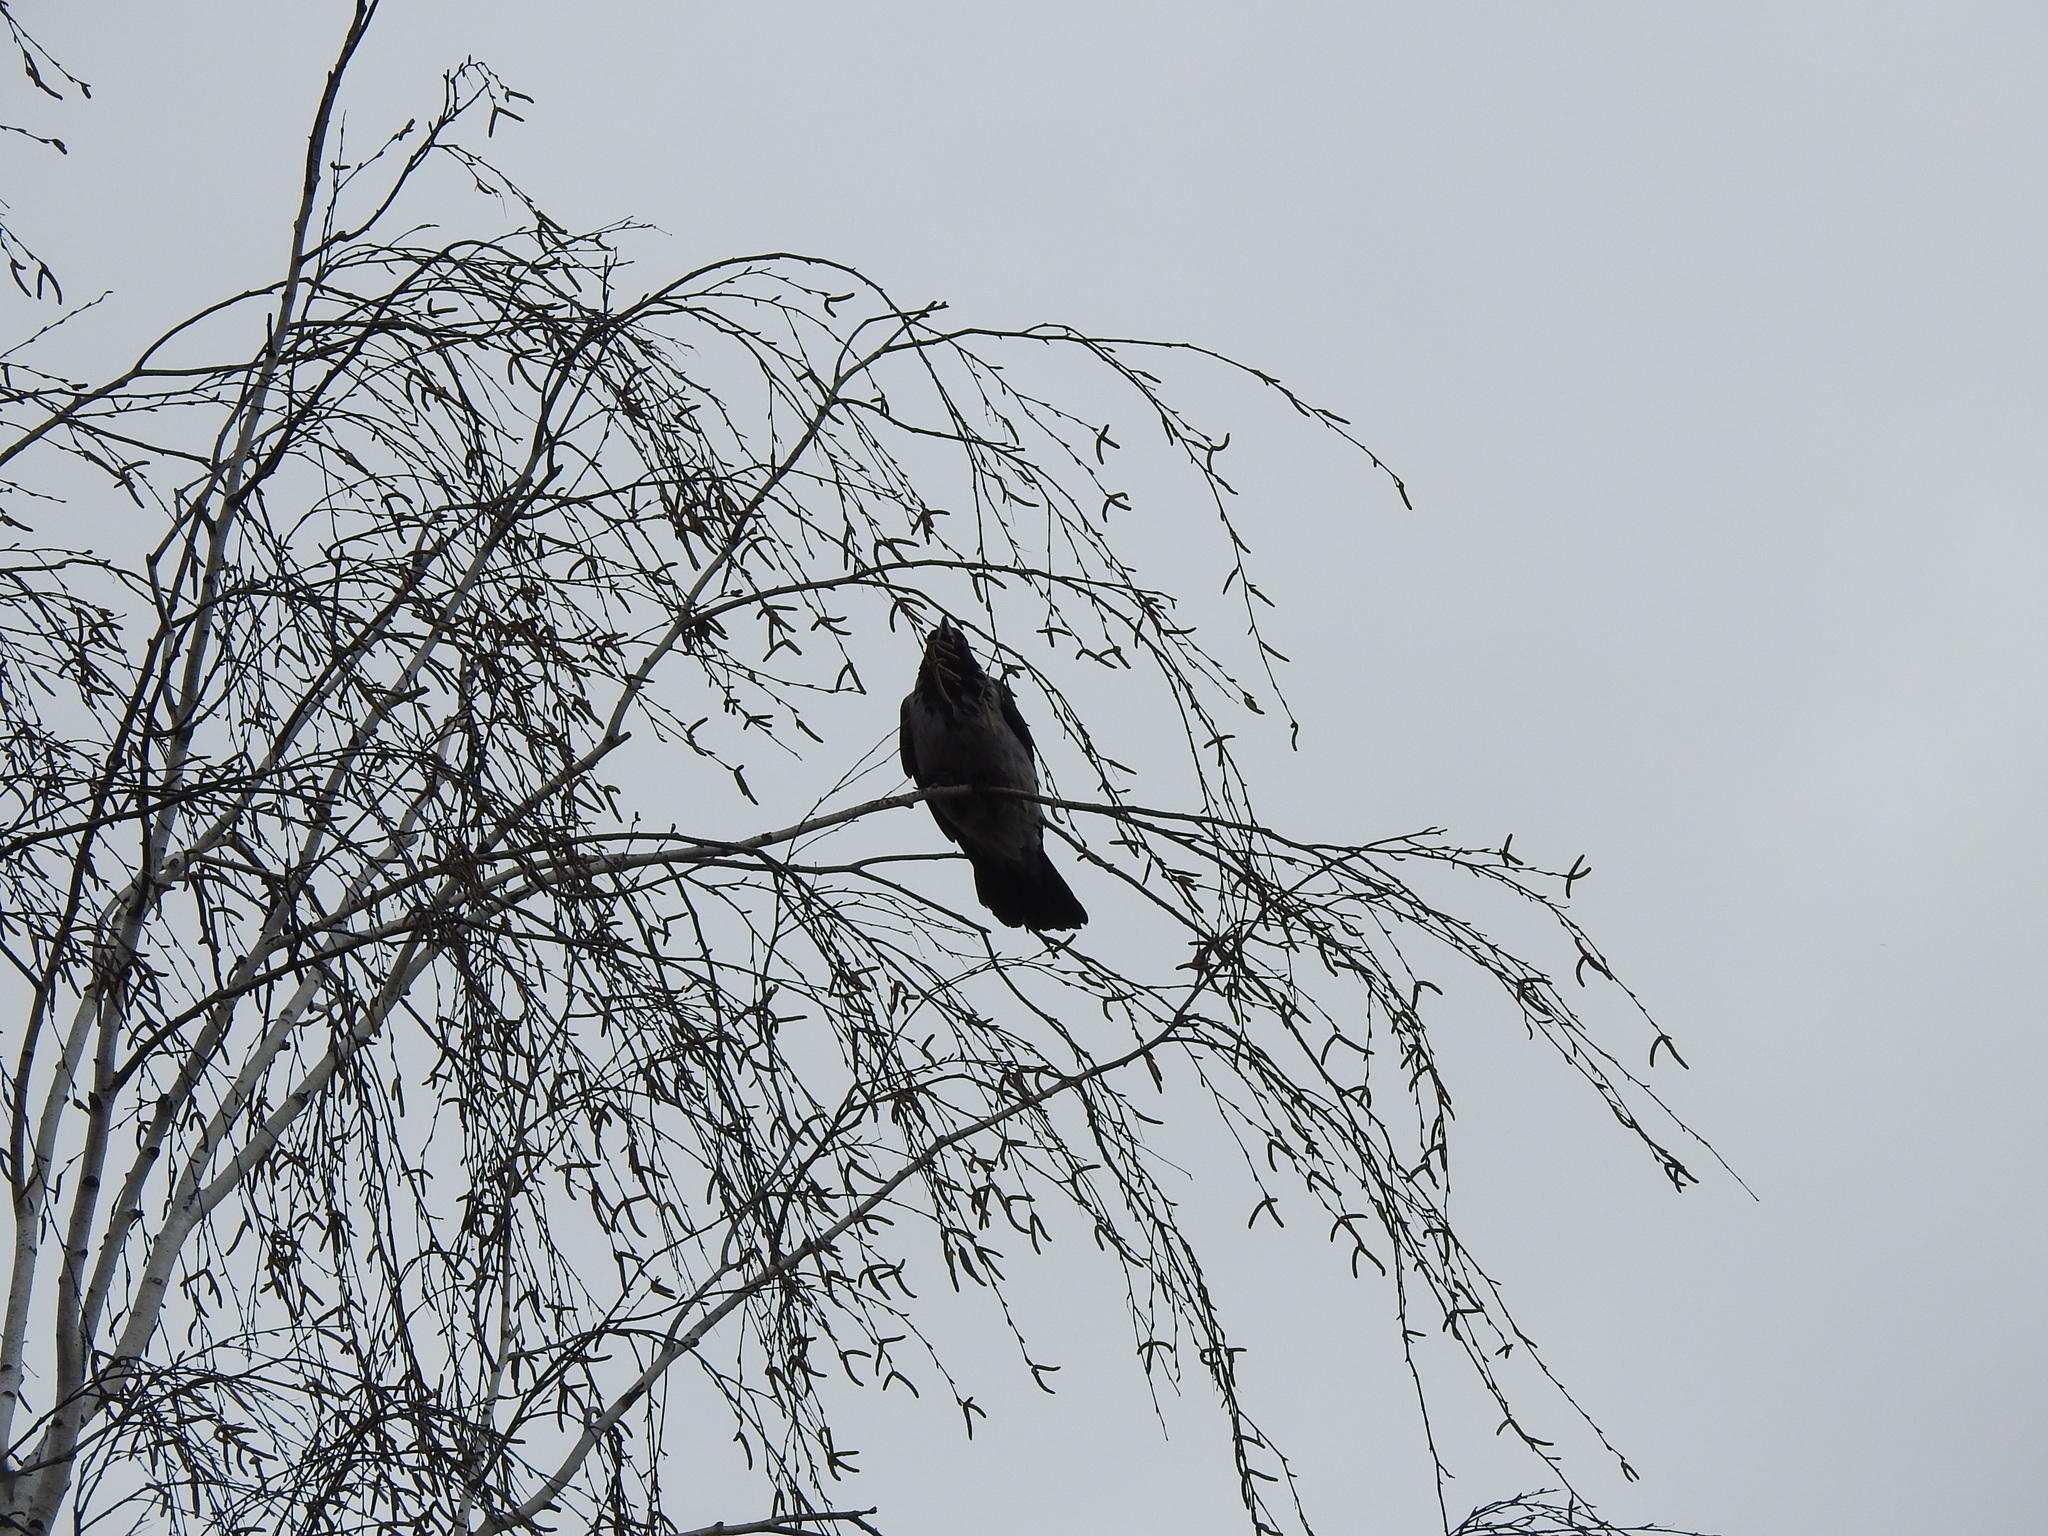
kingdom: Animalia
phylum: Chordata
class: Aves
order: Passeriformes
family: Corvidae
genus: Corvus
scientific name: Corvus cornix
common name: Hooded crow
